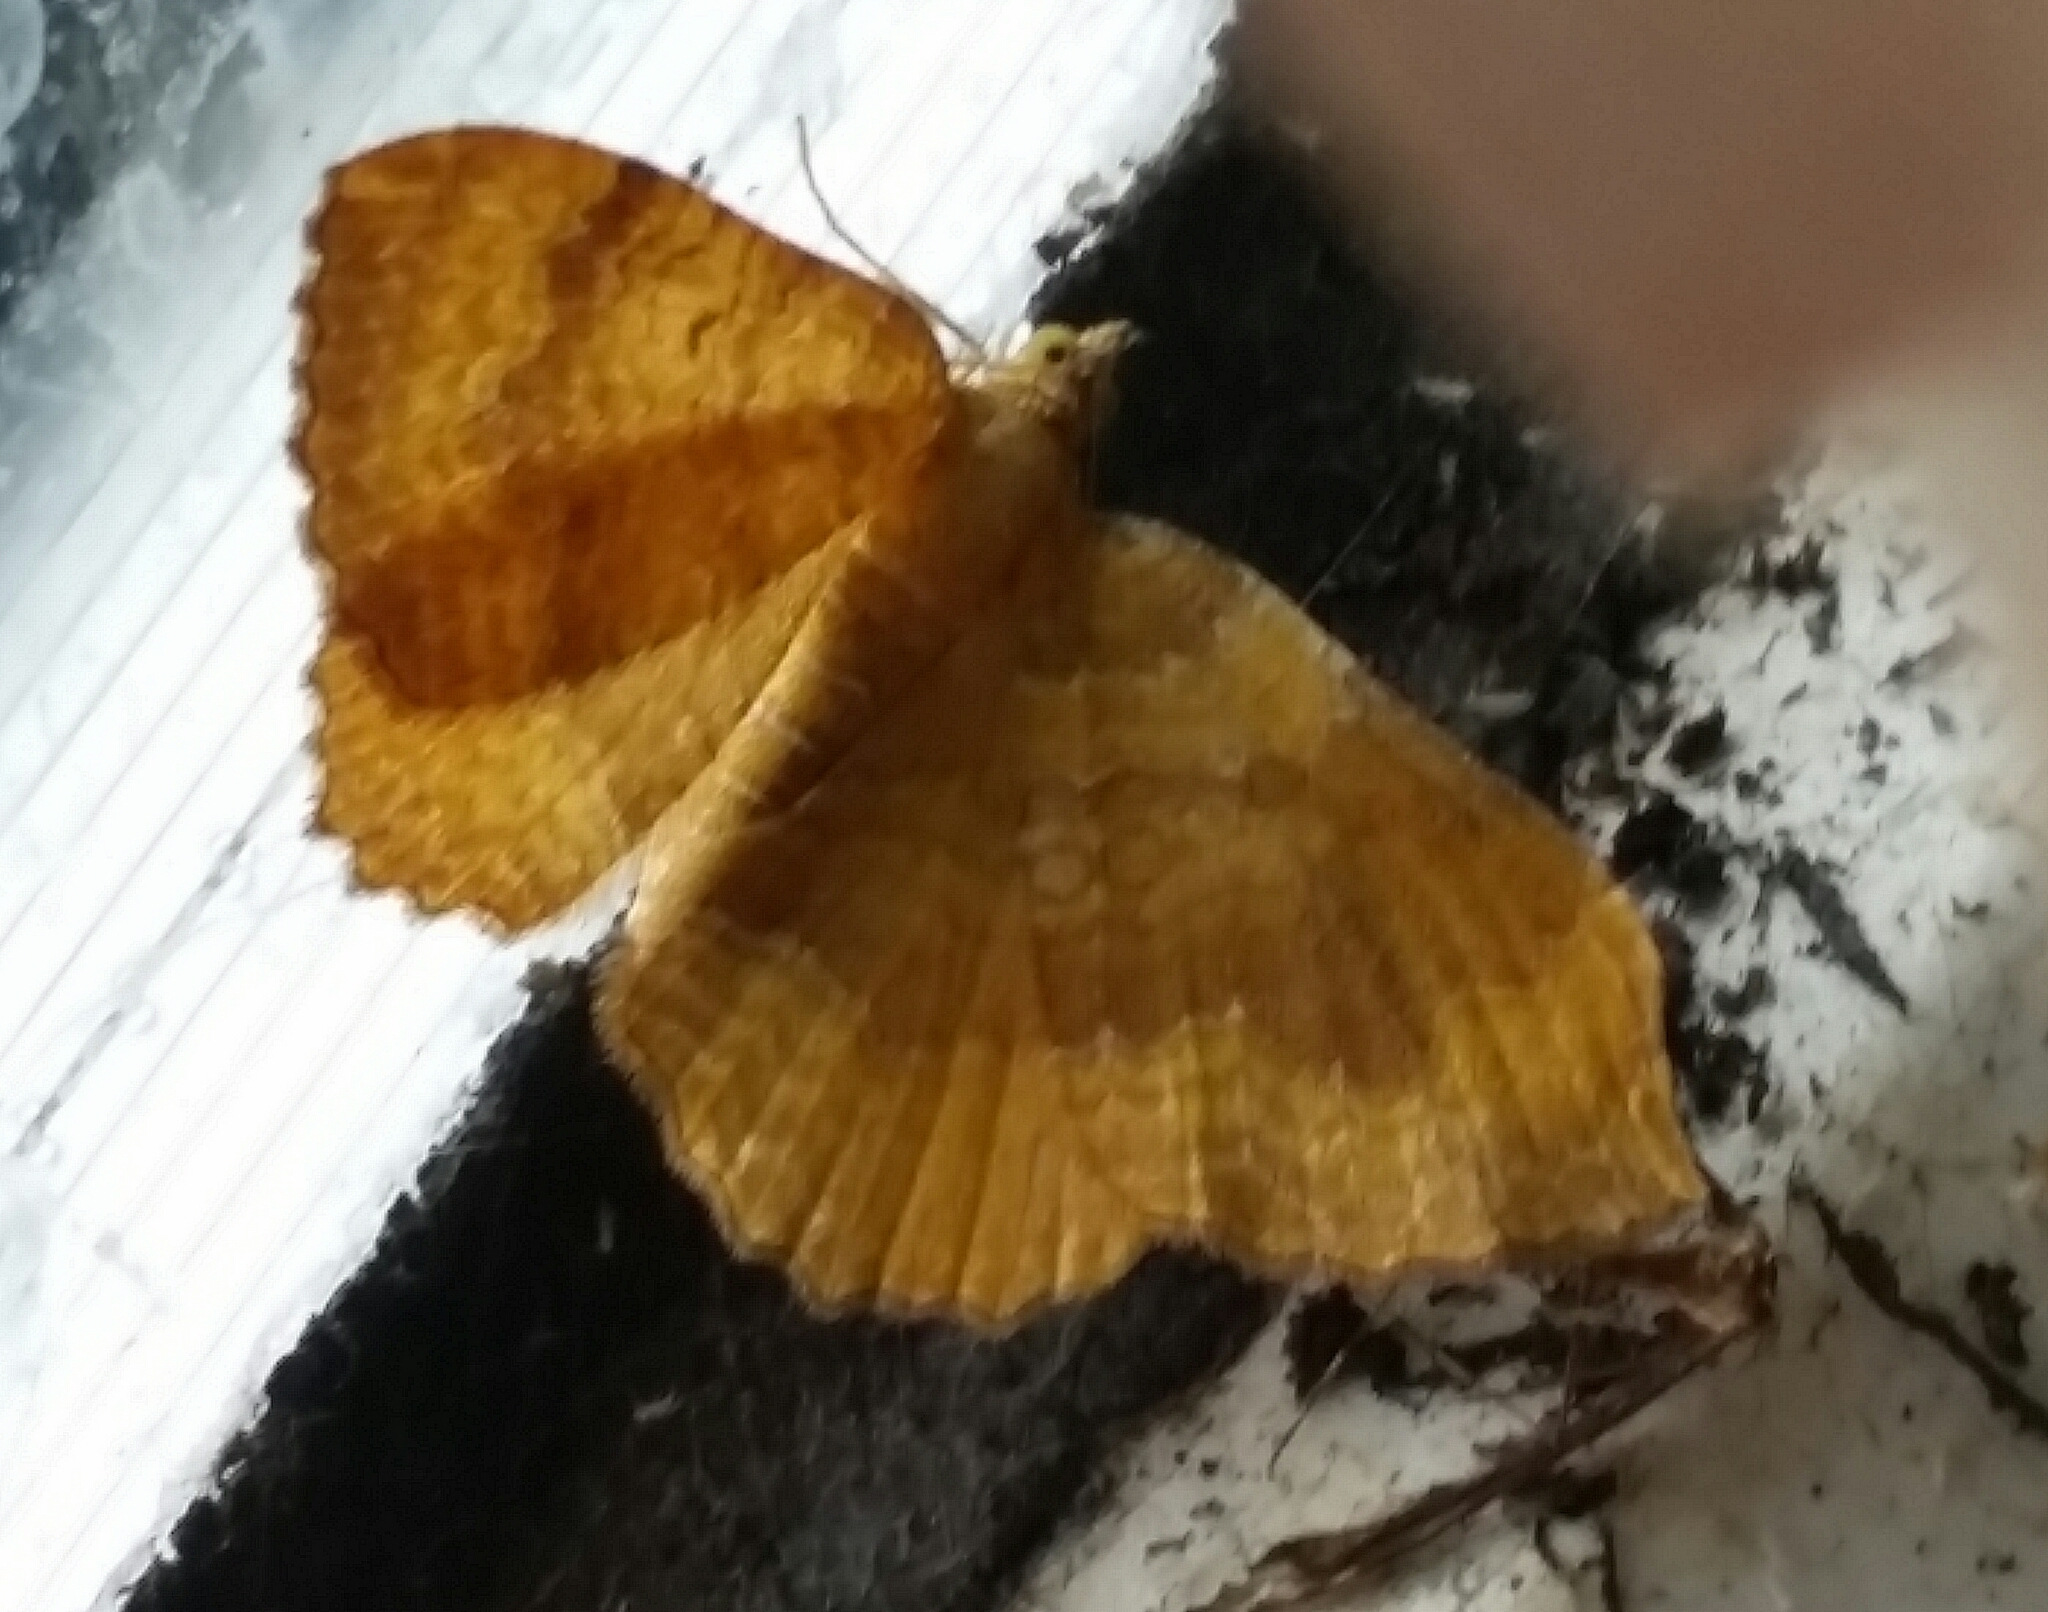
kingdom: Animalia
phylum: Arthropoda
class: Insecta
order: Lepidoptera
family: Geometridae
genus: Camptogramma
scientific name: Camptogramma bilineata
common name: Yellow shell
